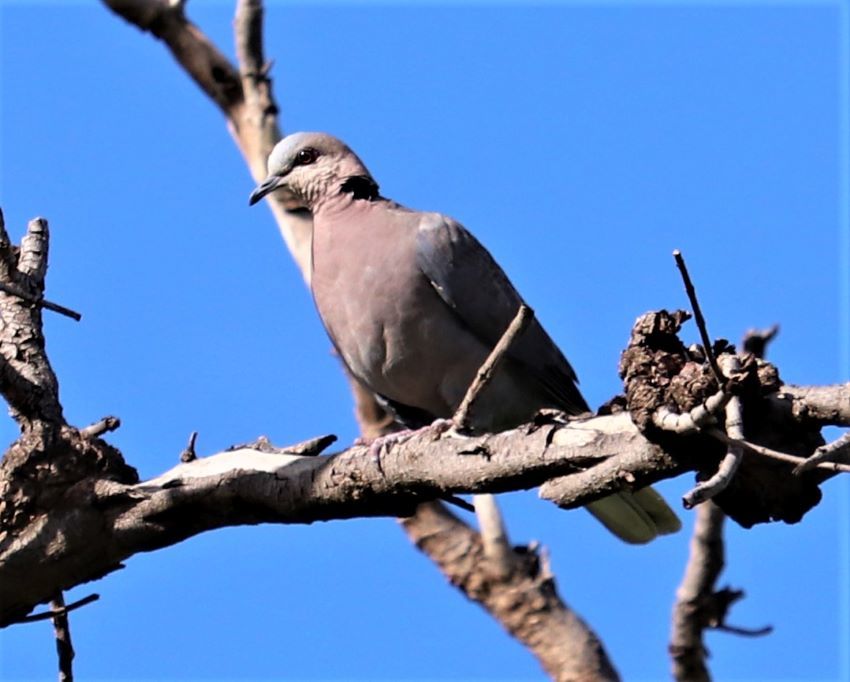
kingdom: Animalia
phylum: Chordata
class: Aves
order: Columbiformes
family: Columbidae
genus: Streptopelia
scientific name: Streptopelia semitorquata
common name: Red-eyed dove
